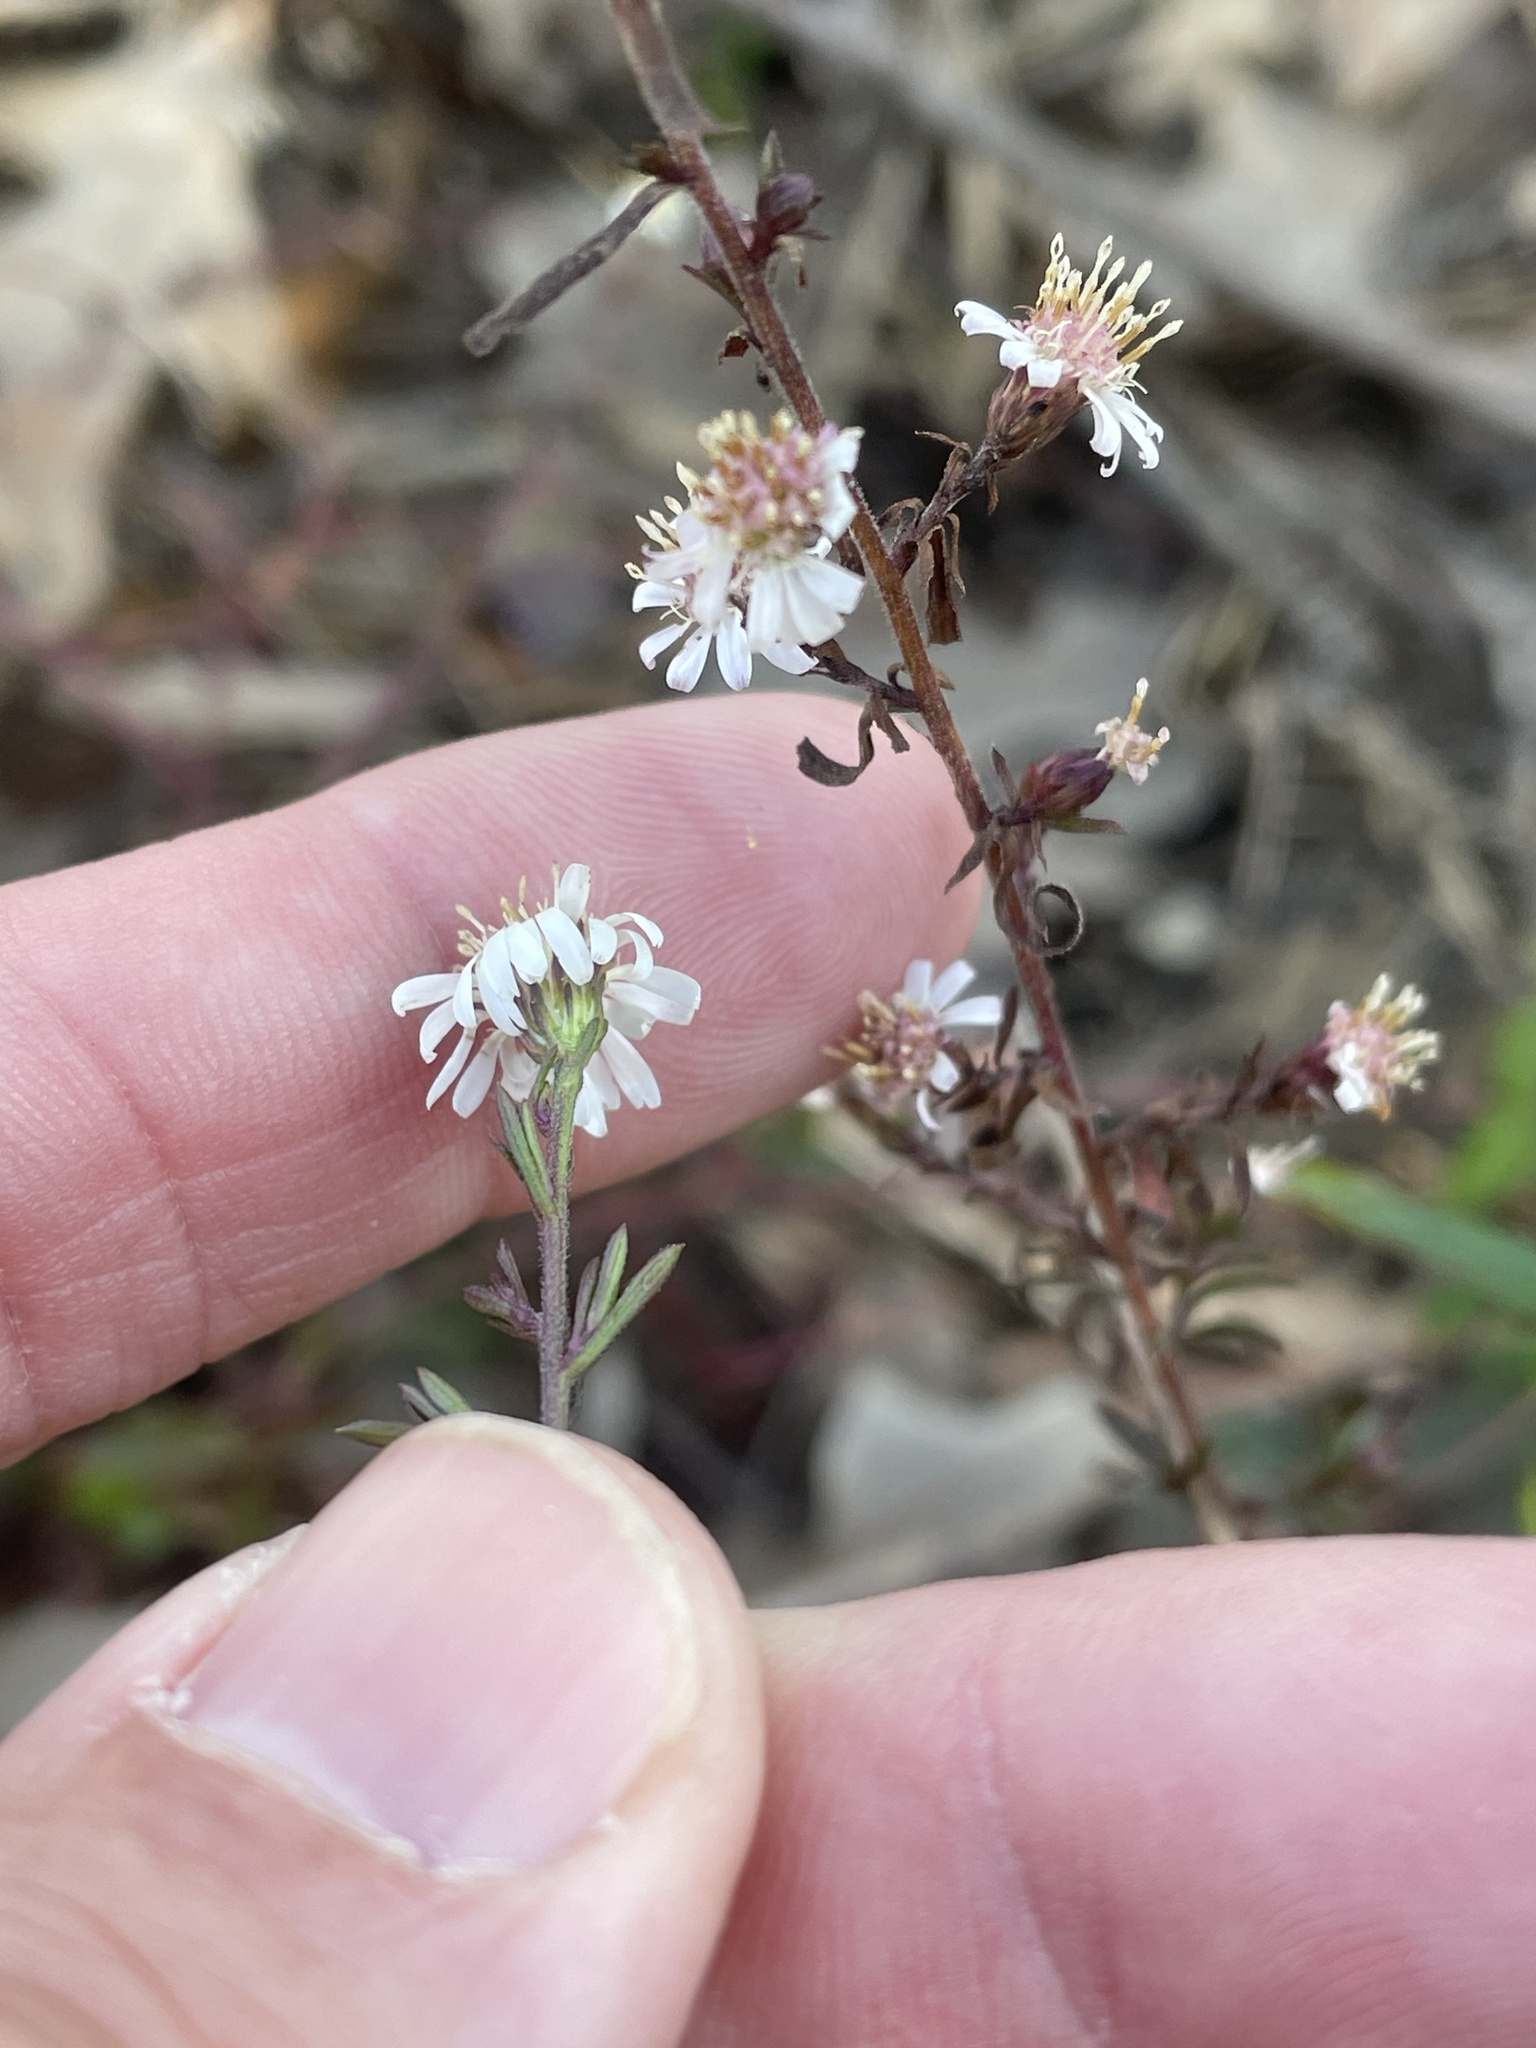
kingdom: Plantae
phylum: Tracheophyta
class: Magnoliopsida
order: Asterales
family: Asteraceae
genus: Symphyotrichum
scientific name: Symphyotrichum lateriflorum
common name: Calico aster
